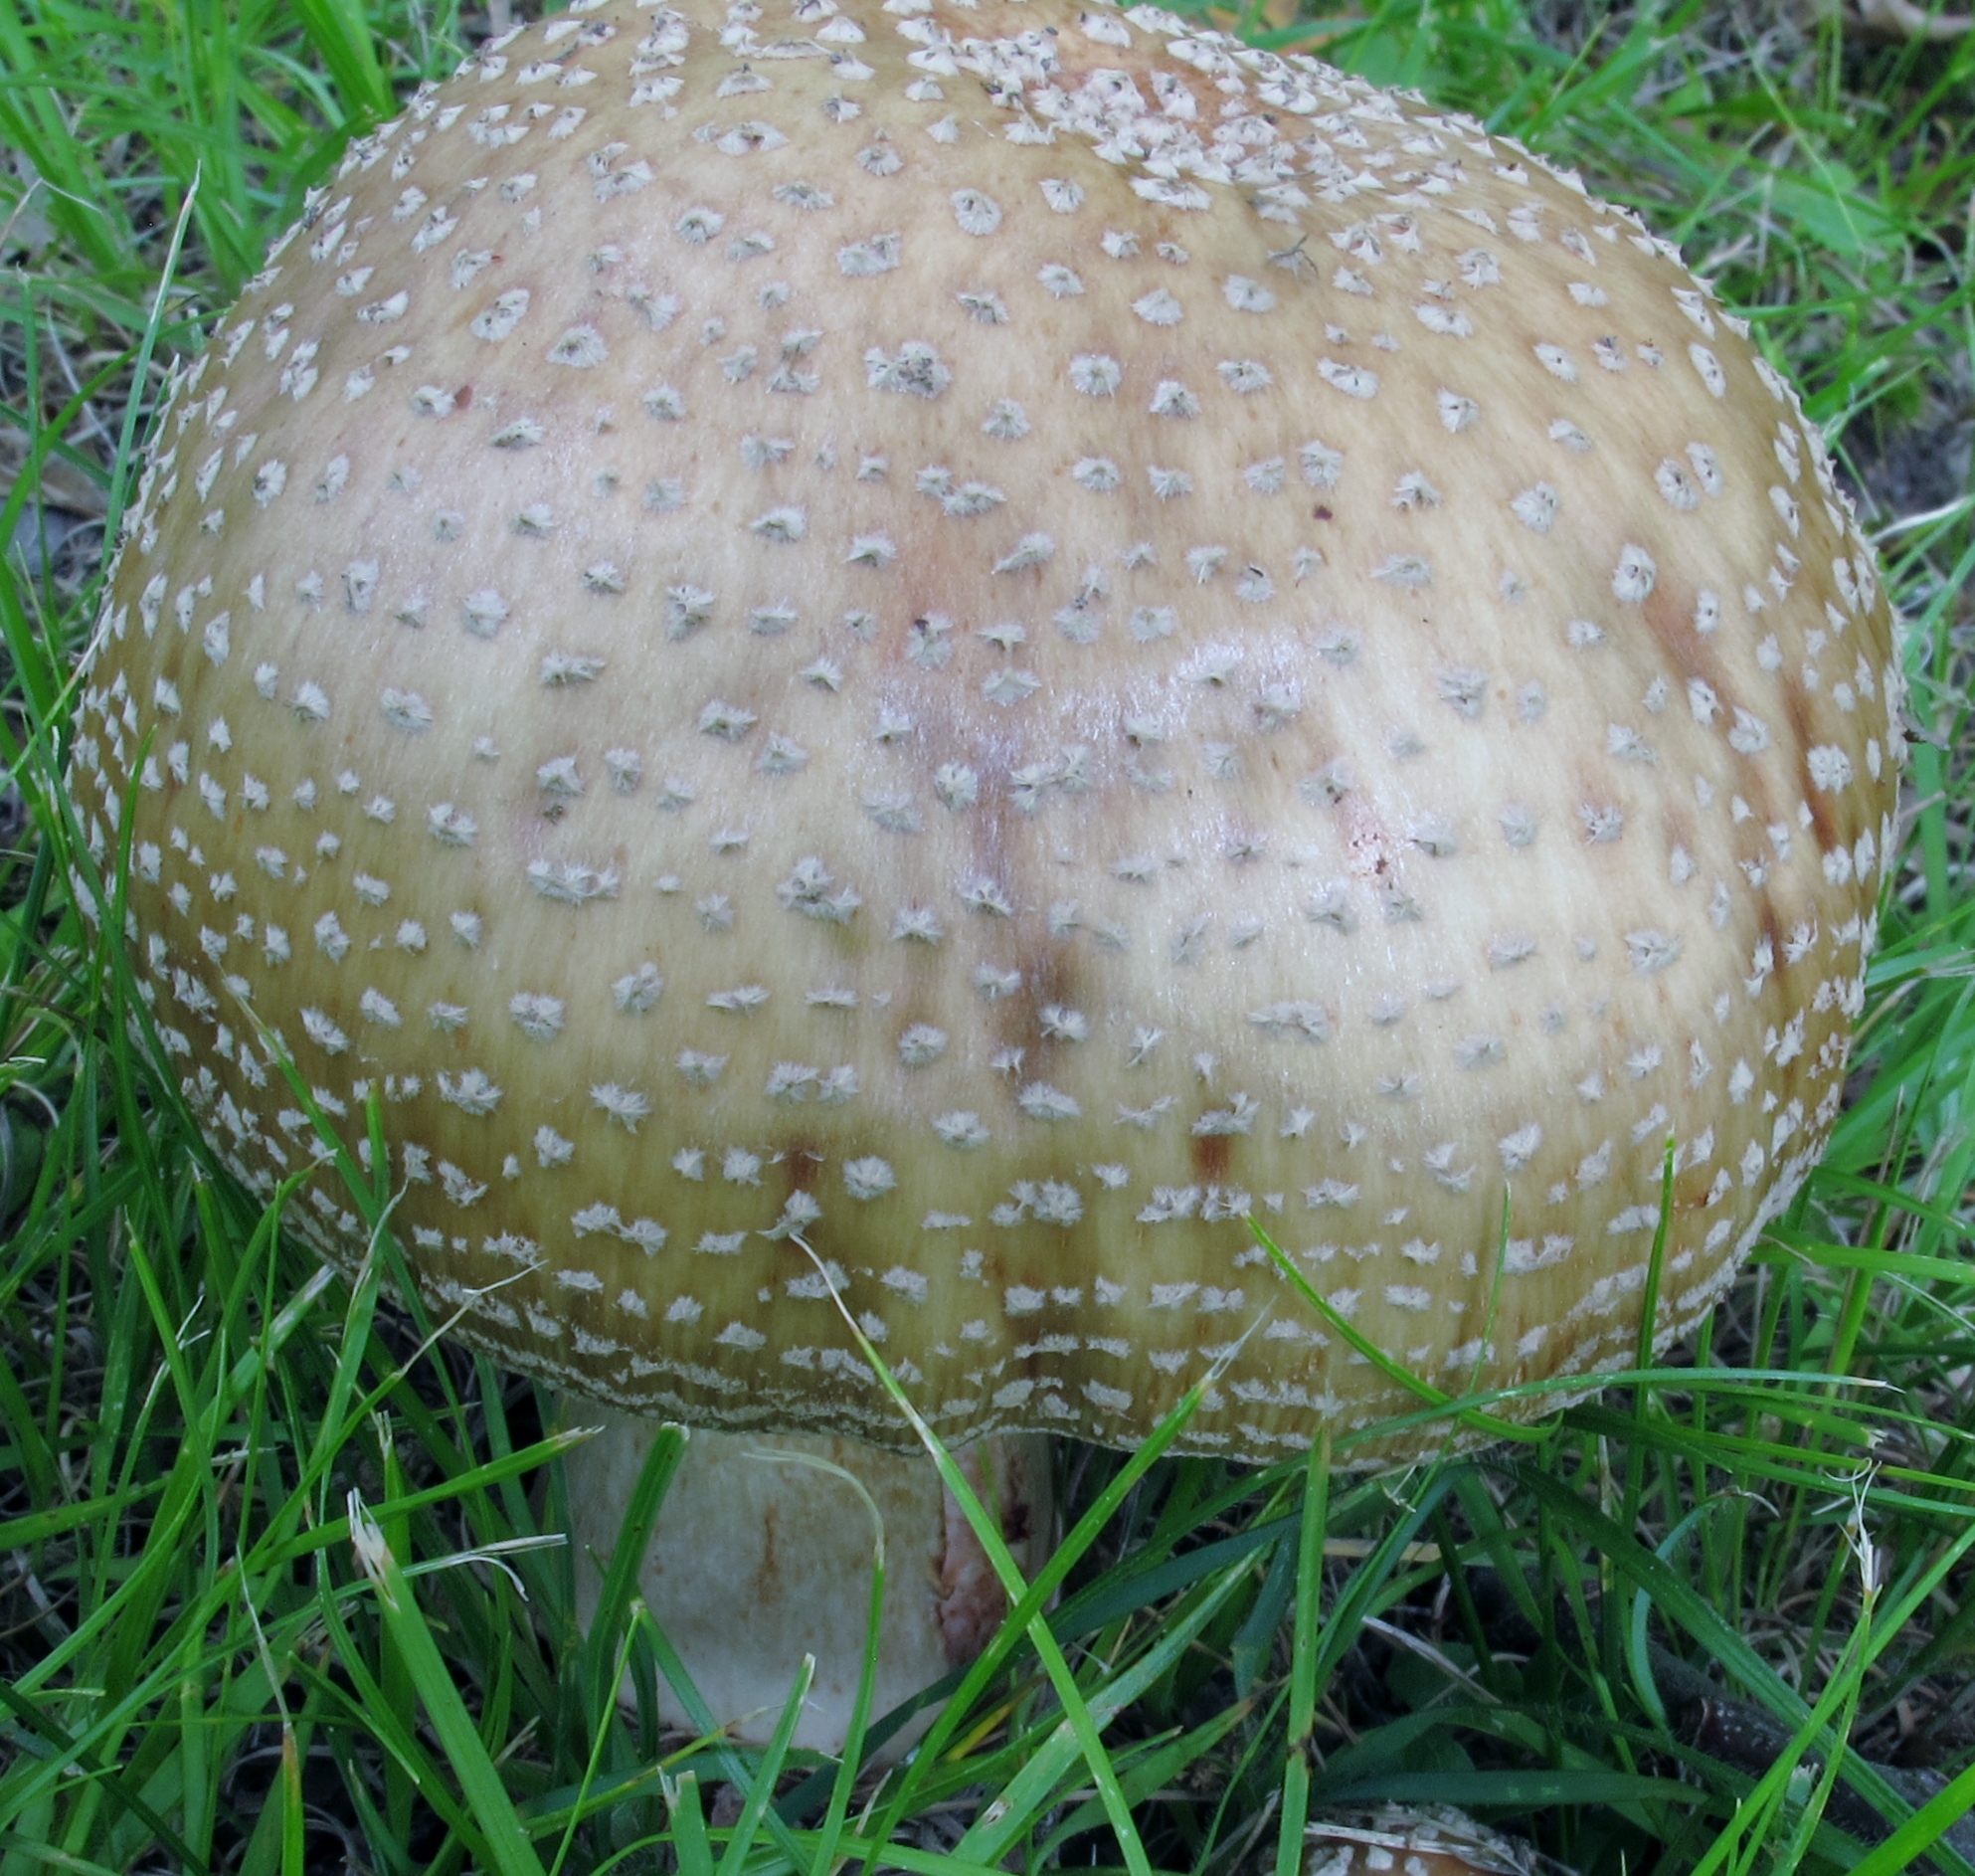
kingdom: Fungi
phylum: Basidiomycota
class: Agaricomycetes
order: Agaricales
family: Amanitaceae
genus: Amanita
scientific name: Amanita rubescens
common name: Blusher
